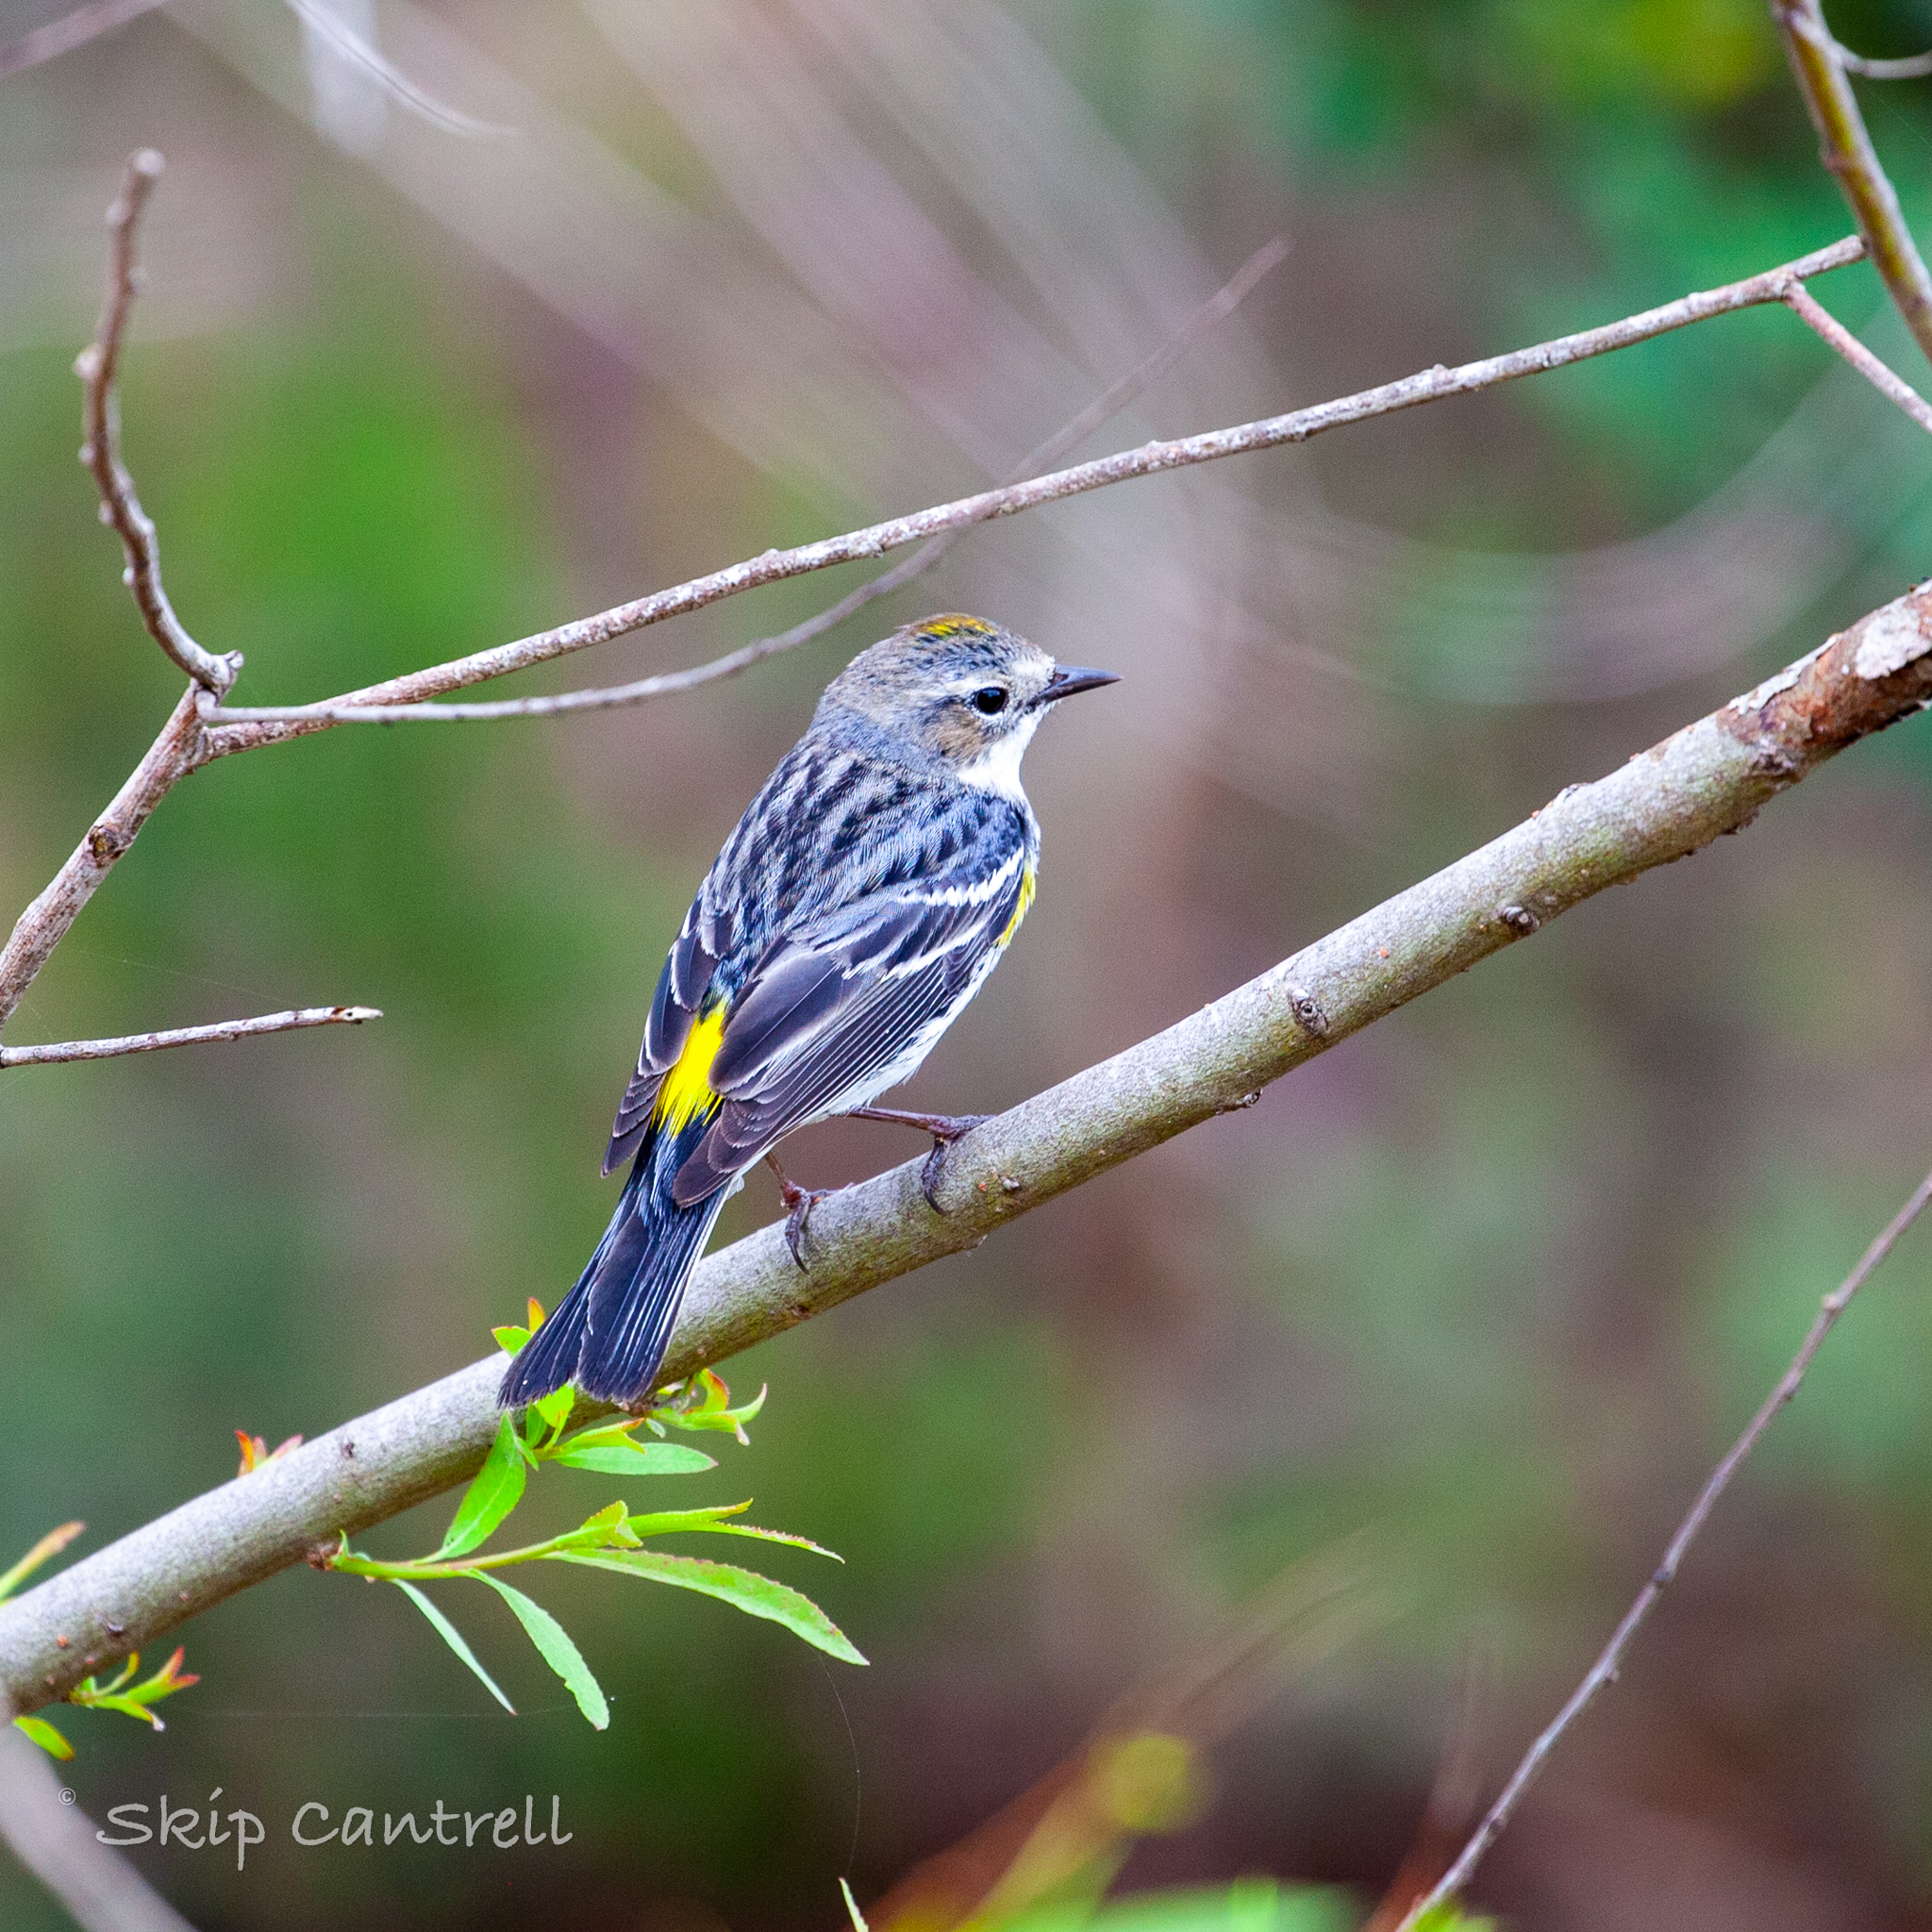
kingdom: Animalia
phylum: Chordata
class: Aves
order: Passeriformes
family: Parulidae
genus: Setophaga
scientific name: Setophaga coronata
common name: Myrtle warbler
